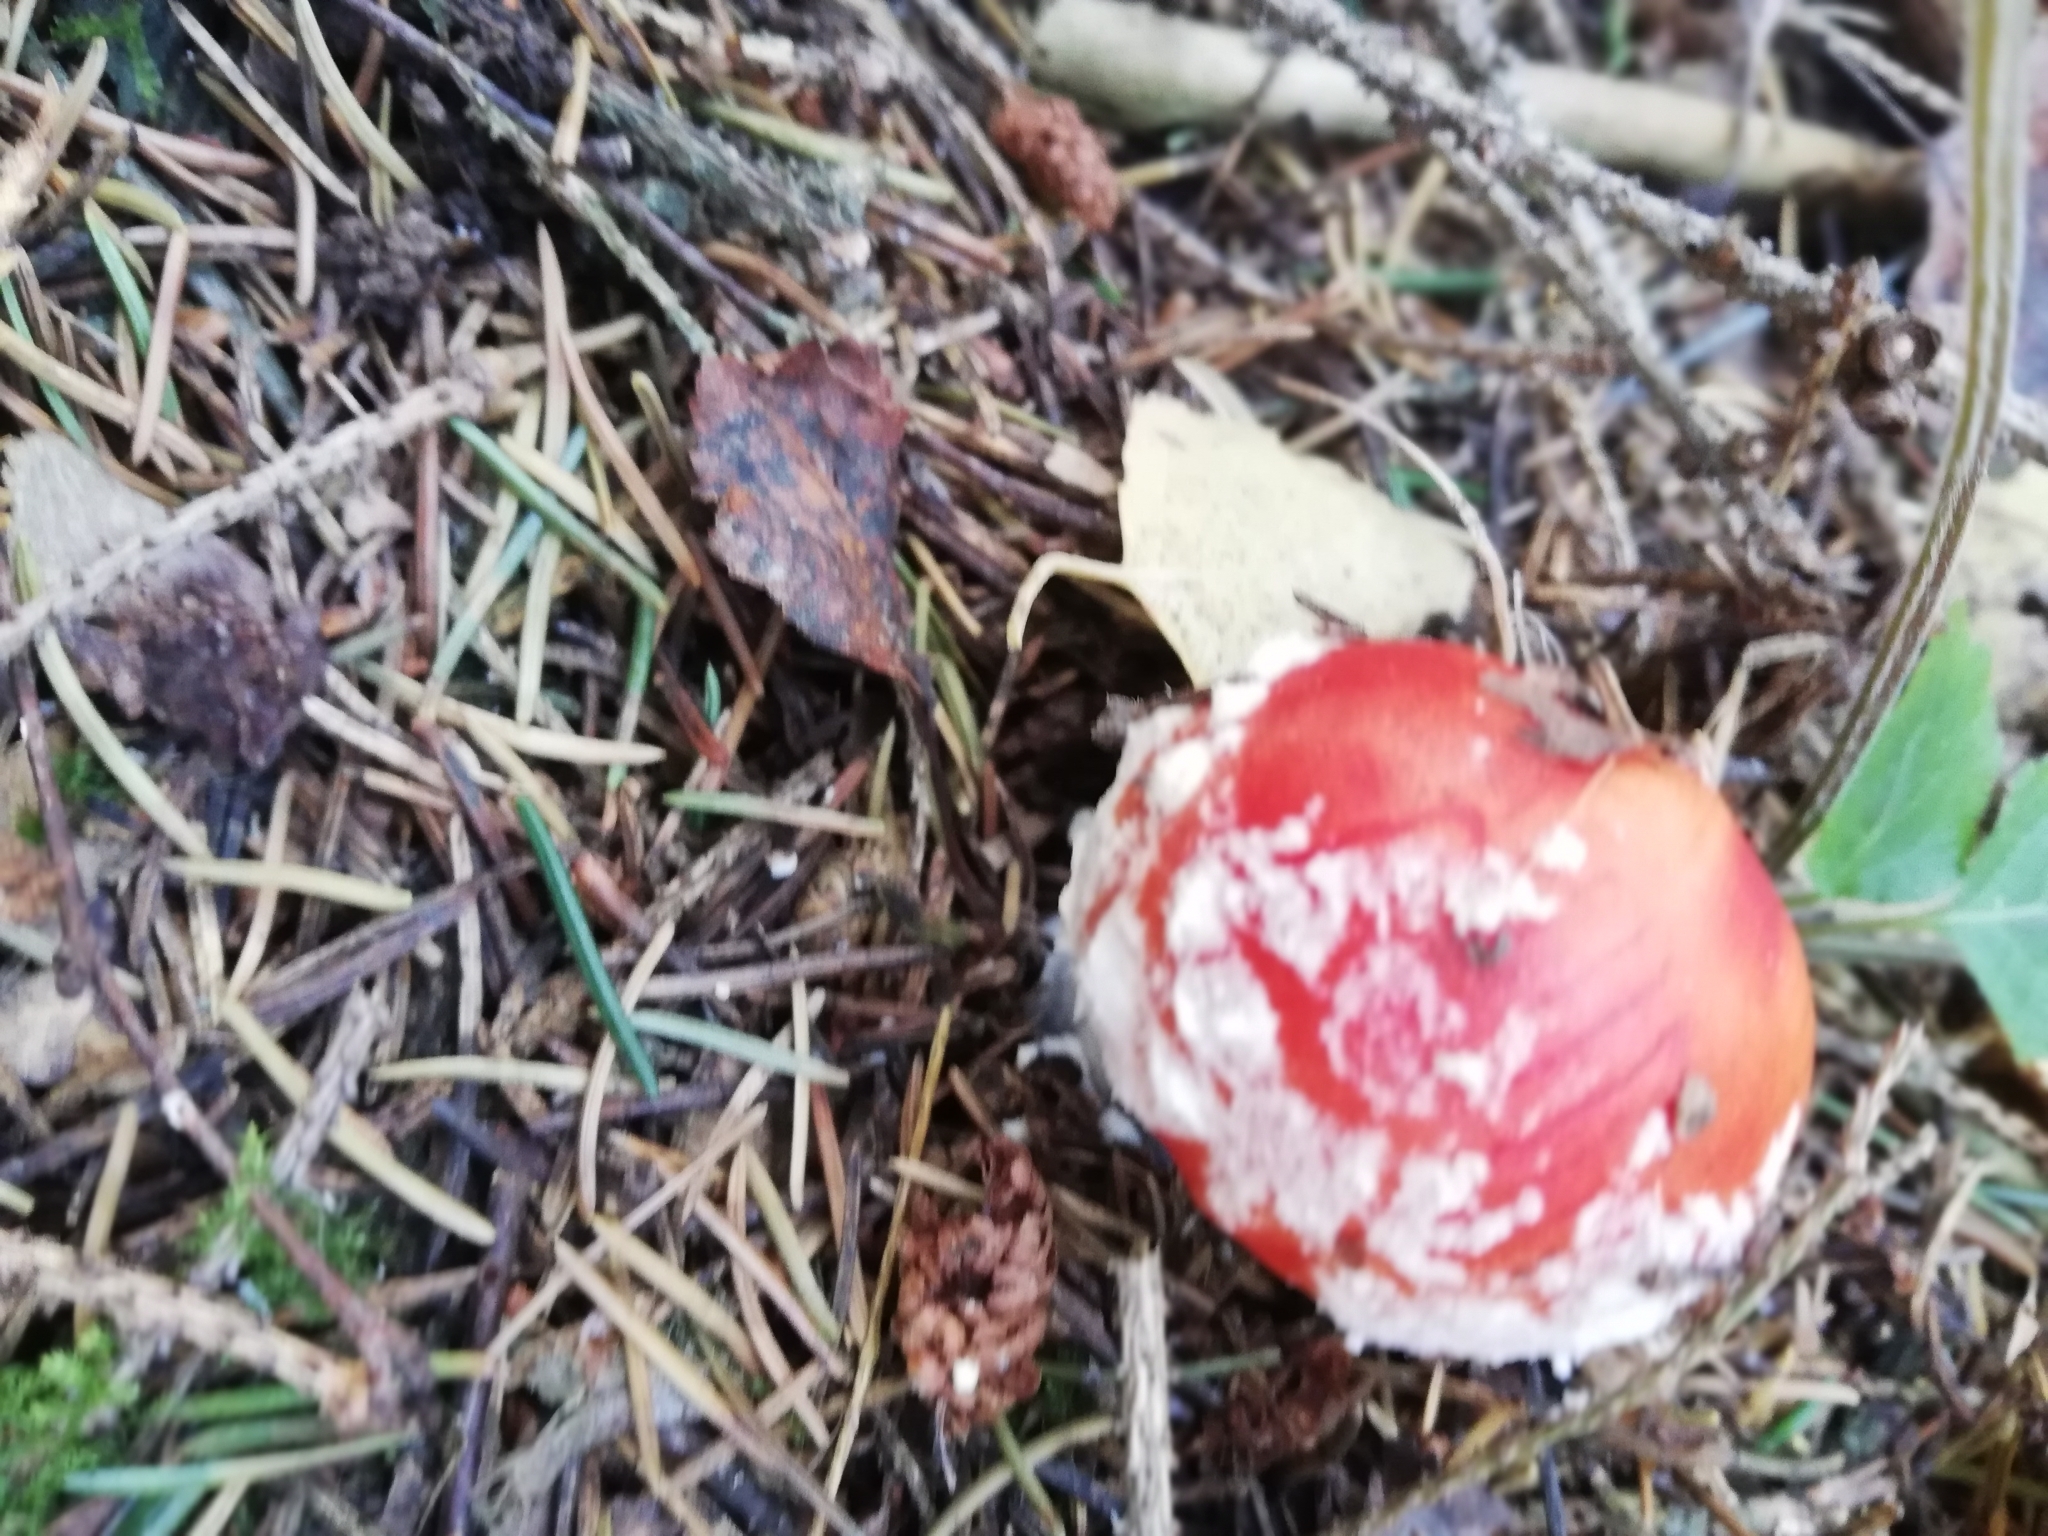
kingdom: Fungi
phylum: Basidiomycota
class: Agaricomycetes
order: Agaricales
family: Amanitaceae
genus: Amanita
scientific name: Amanita muscaria
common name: Fly agaric
